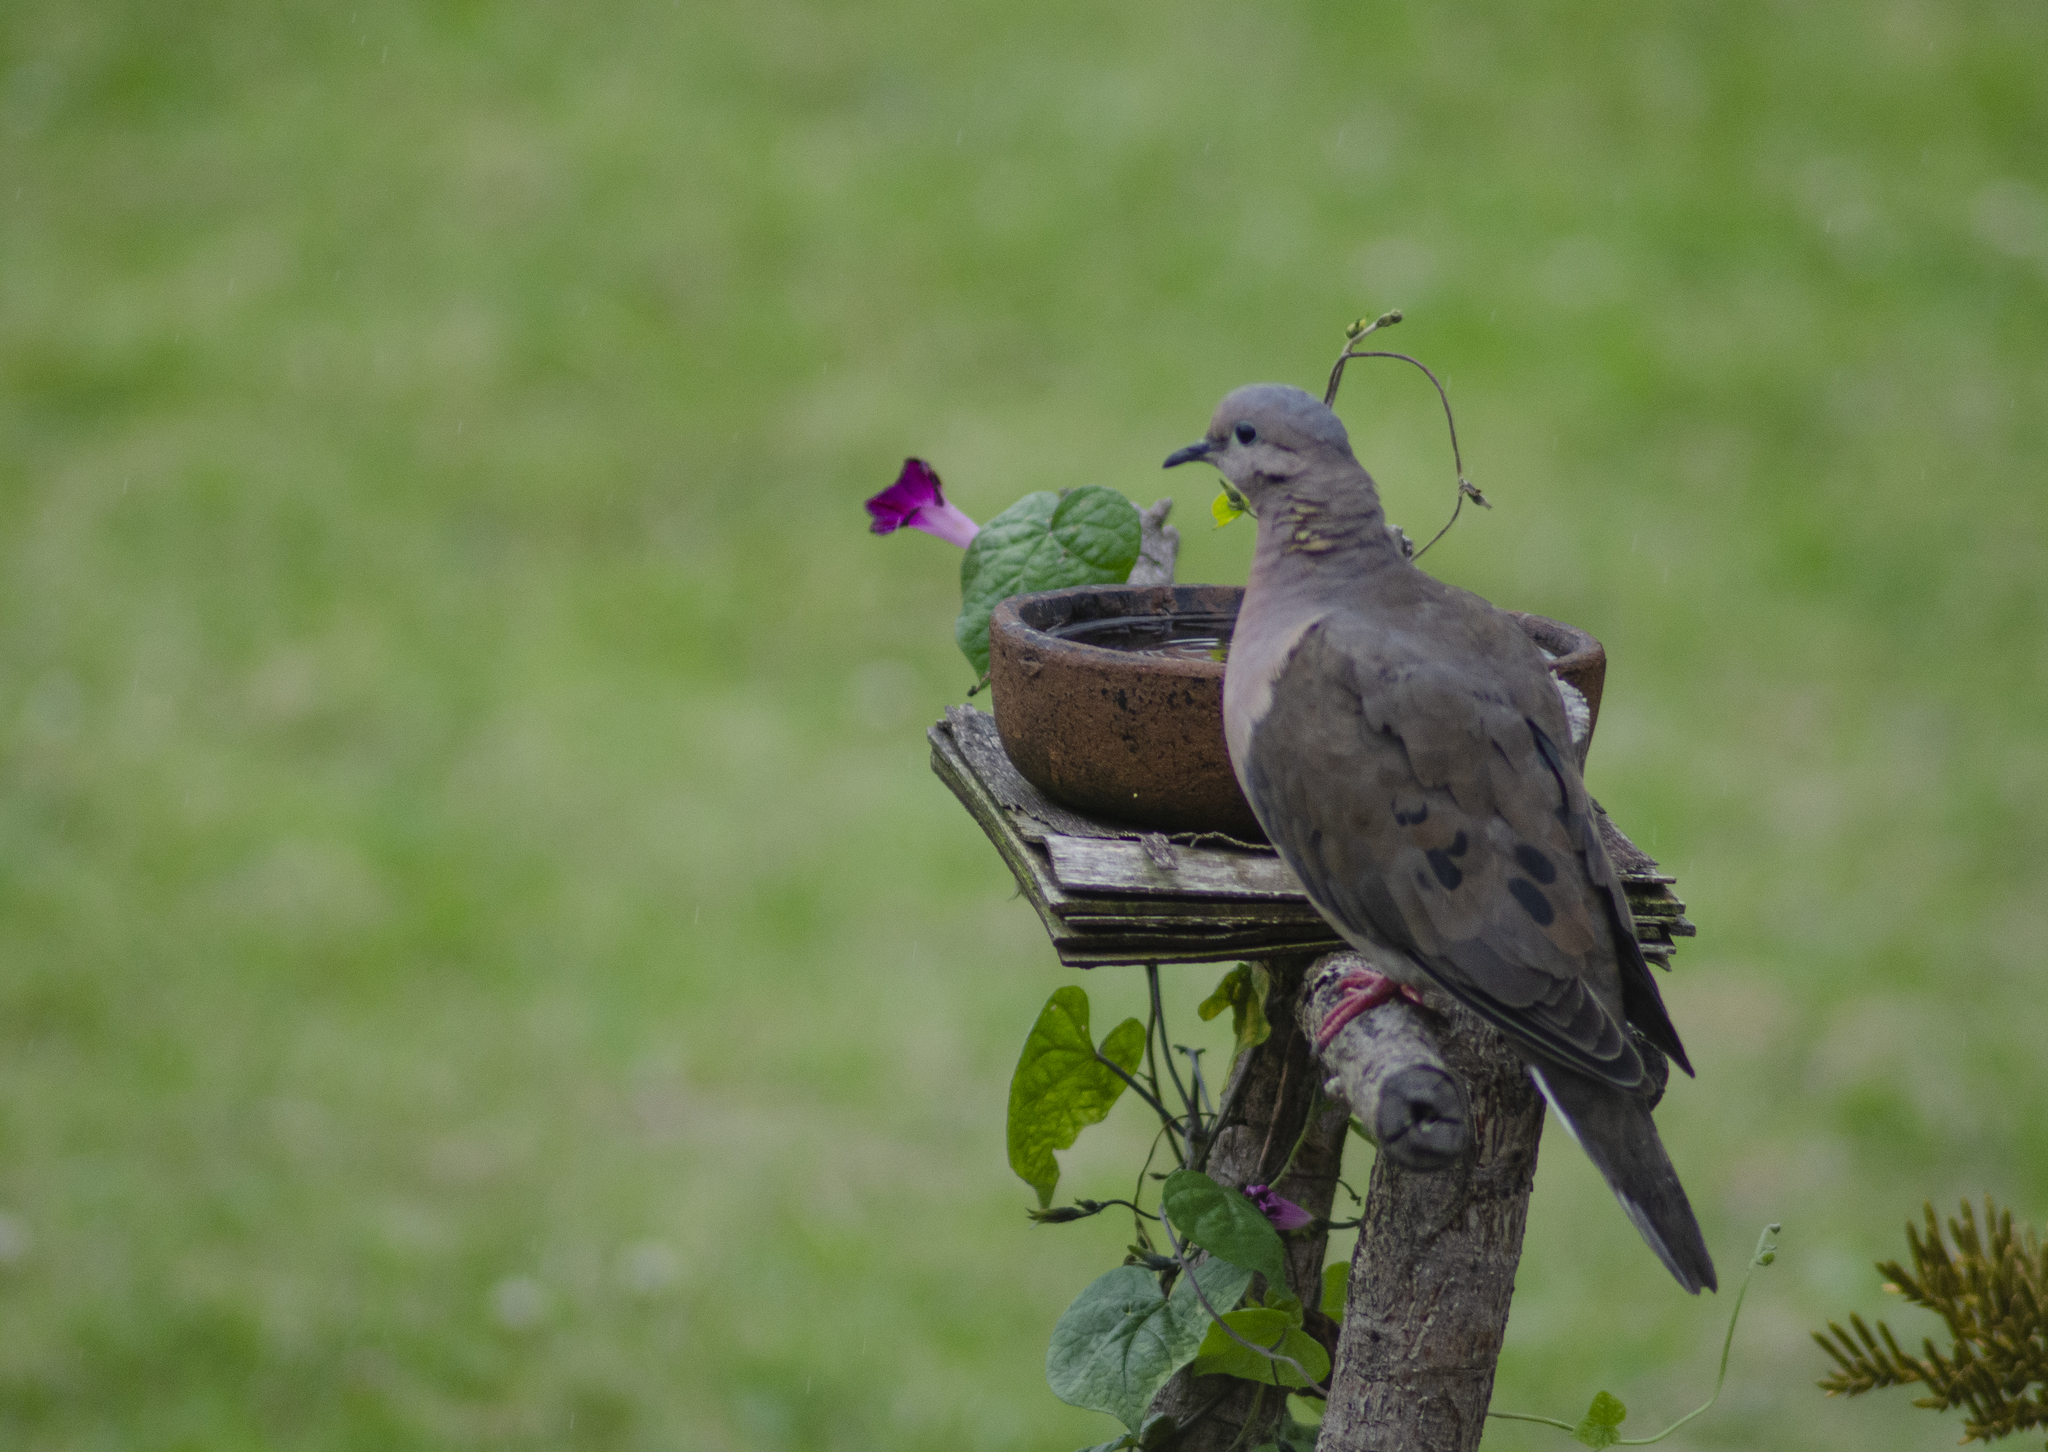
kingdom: Animalia
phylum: Chordata
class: Aves
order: Columbiformes
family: Columbidae
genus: Zenaida
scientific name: Zenaida auriculata
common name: Eared dove
